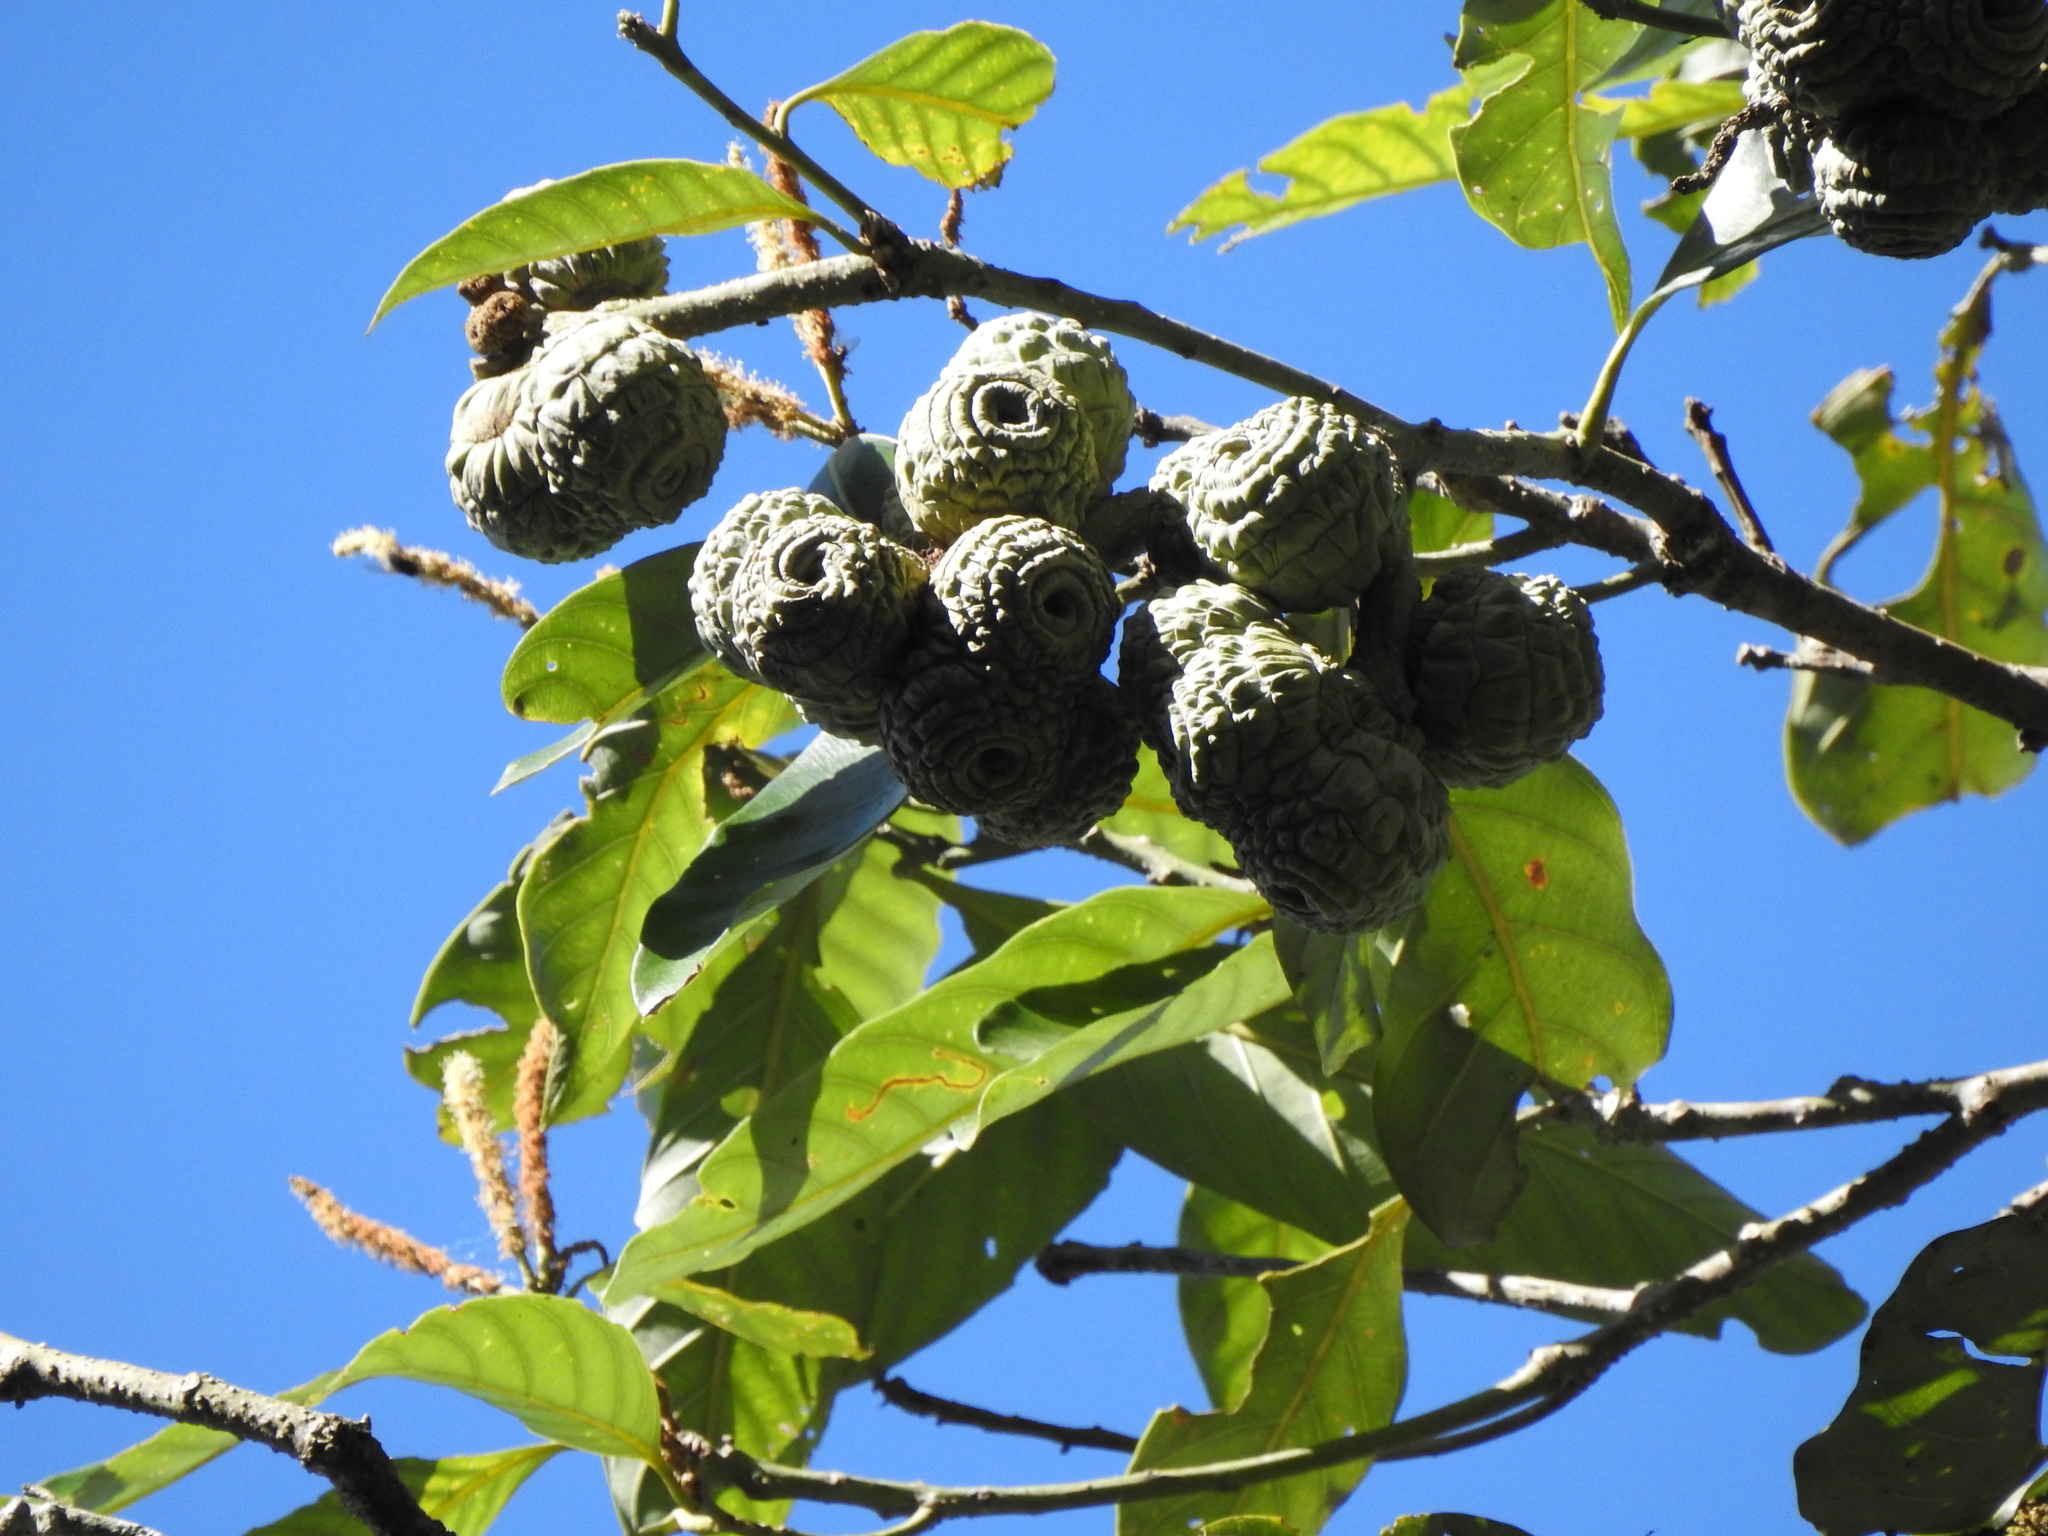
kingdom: Plantae
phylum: Tracheophyta
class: Magnoliopsida
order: Fagales
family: Fagaceae
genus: Lithocarpus
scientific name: Lithocarpus lepidocarpus
